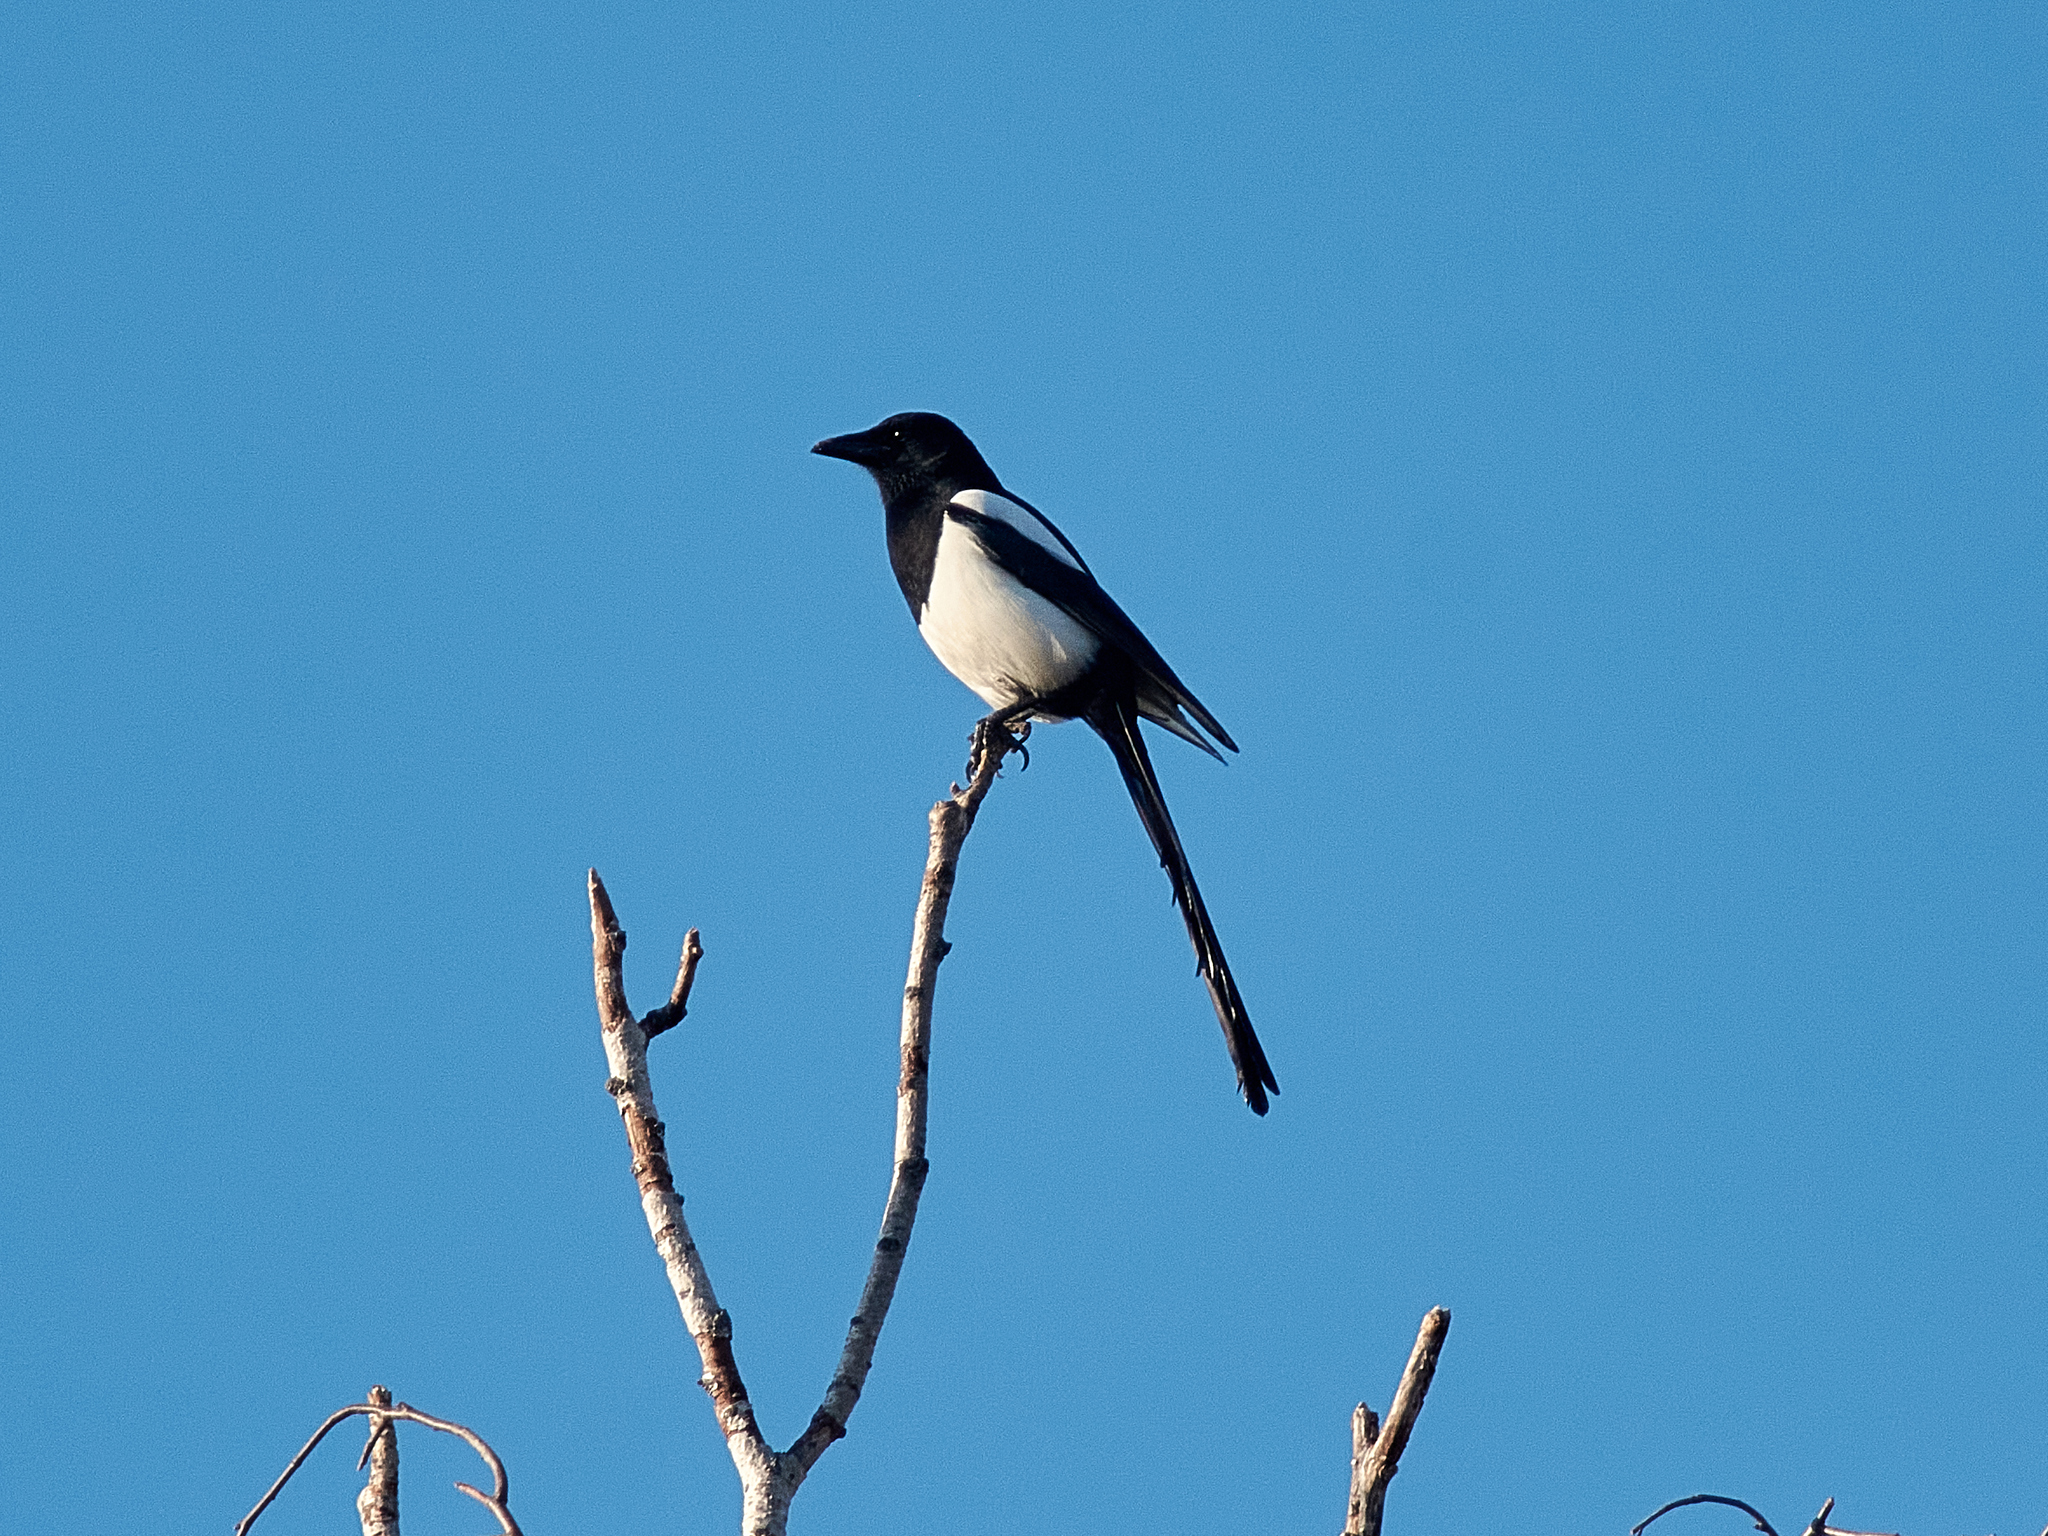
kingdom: Animalia
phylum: Chordata
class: Aves
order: Passeriformes
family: Corvidae
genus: Pica
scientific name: Pica pica
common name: Eurasian magpie
